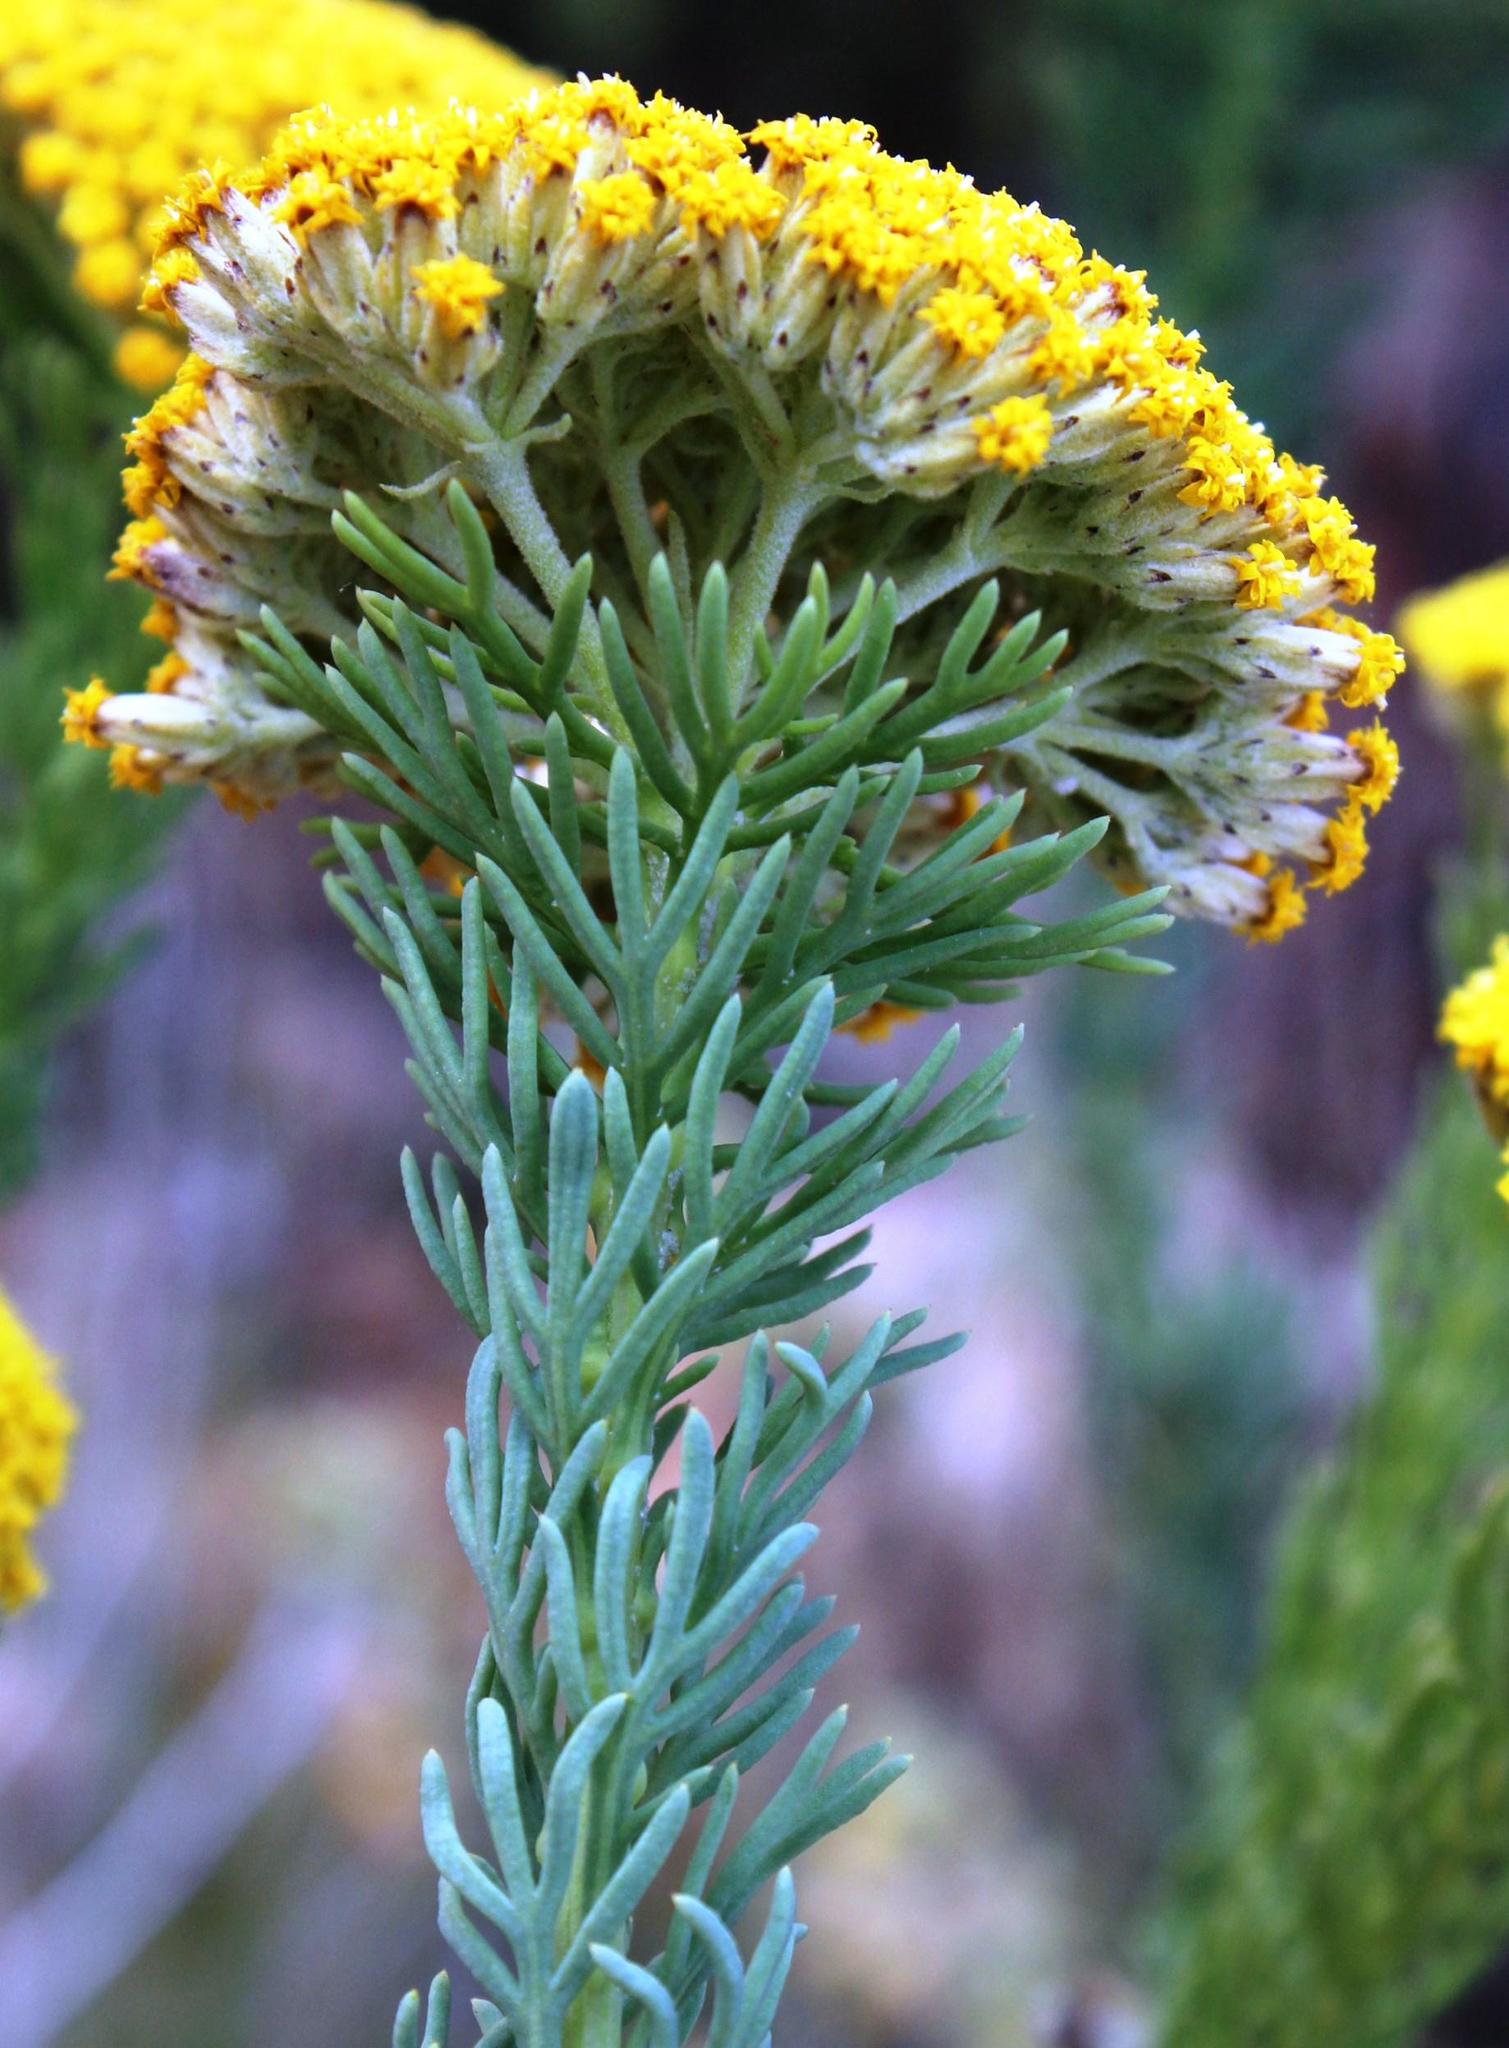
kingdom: Plantae
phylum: Tracheophyta
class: Magnoliopsida
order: Asterales
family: Asteraceae
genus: Hymenolepis
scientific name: Hymenolepis incisa
